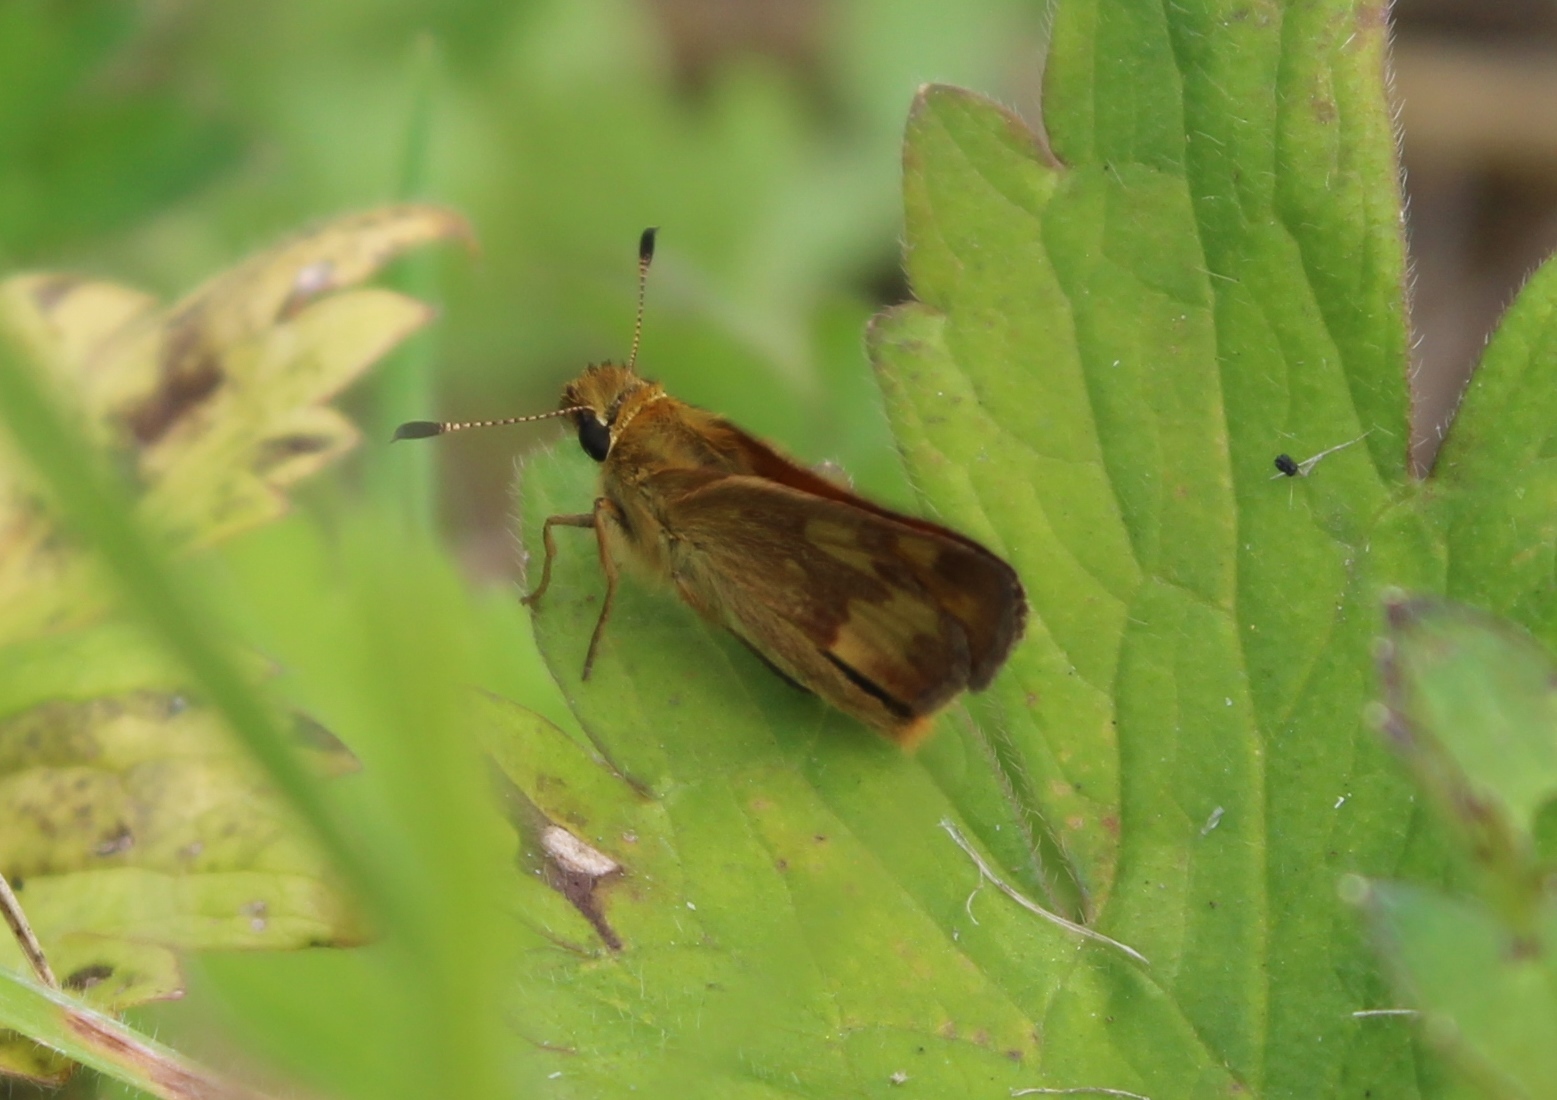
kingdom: Animalia
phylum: Arthropoda
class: Insecta
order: Lepidoptera
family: Hesperiidae
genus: Ochlodes
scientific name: Ochlodes sylvanoides
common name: Woodland skipper
